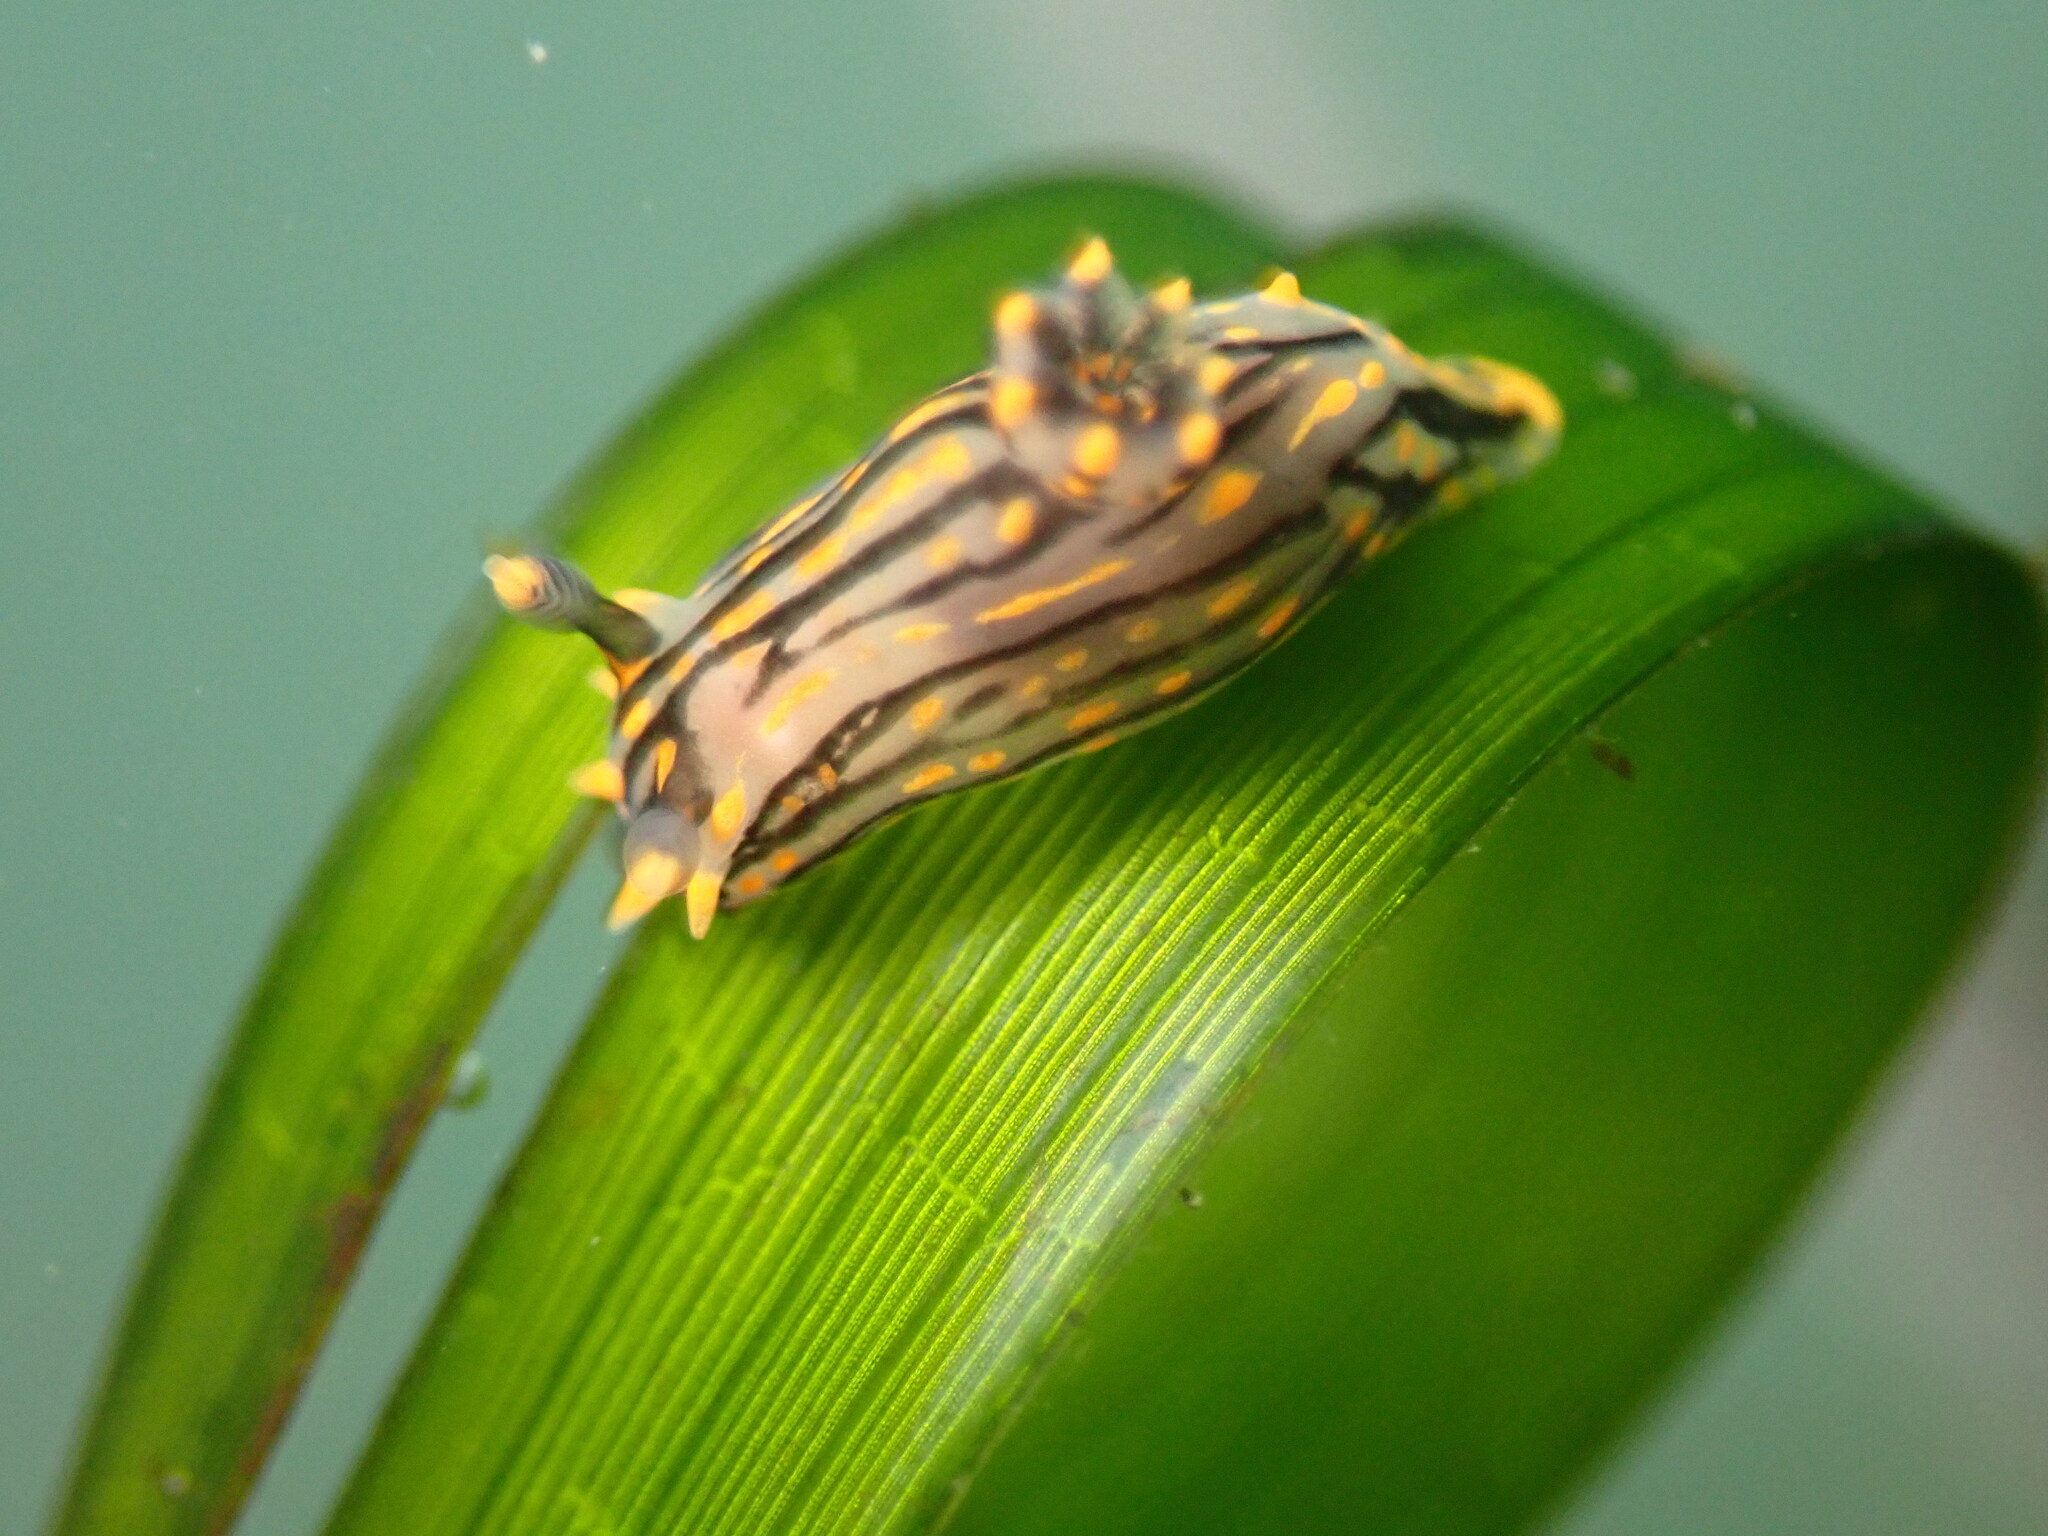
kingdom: Animalia
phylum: Mollusca
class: Gastropoda
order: Nudibranchia
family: Polyceridae
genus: Polycera
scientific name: Polycera atra
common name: Orange-spike polycera
